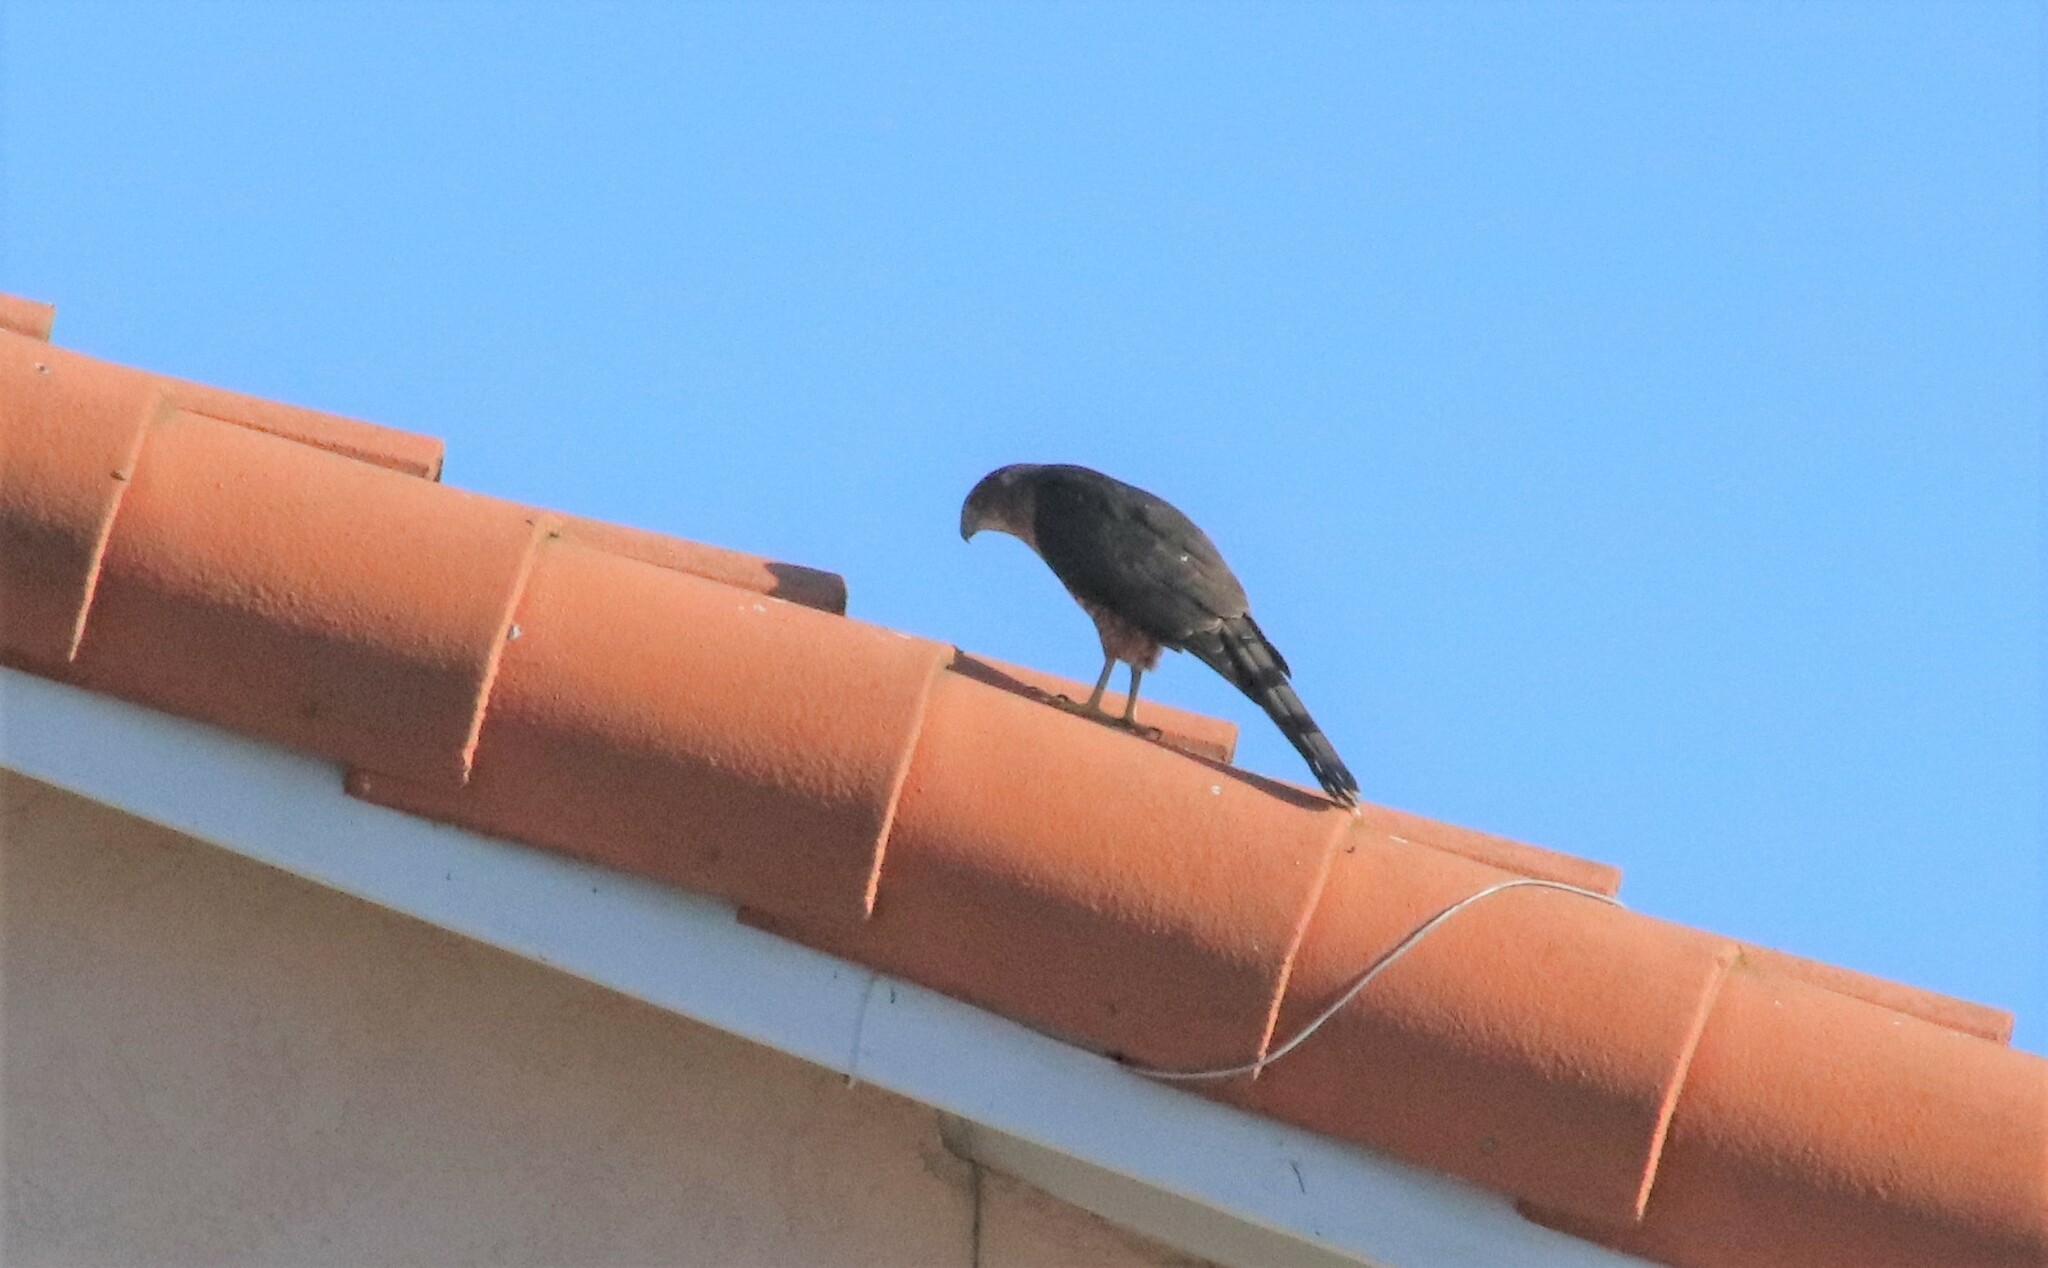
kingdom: Animalia
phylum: Chordata
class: Aves
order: Accipitriformes
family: Accipitridae
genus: Accipiter
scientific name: Accipiter cooperii
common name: Cooper's hawk
